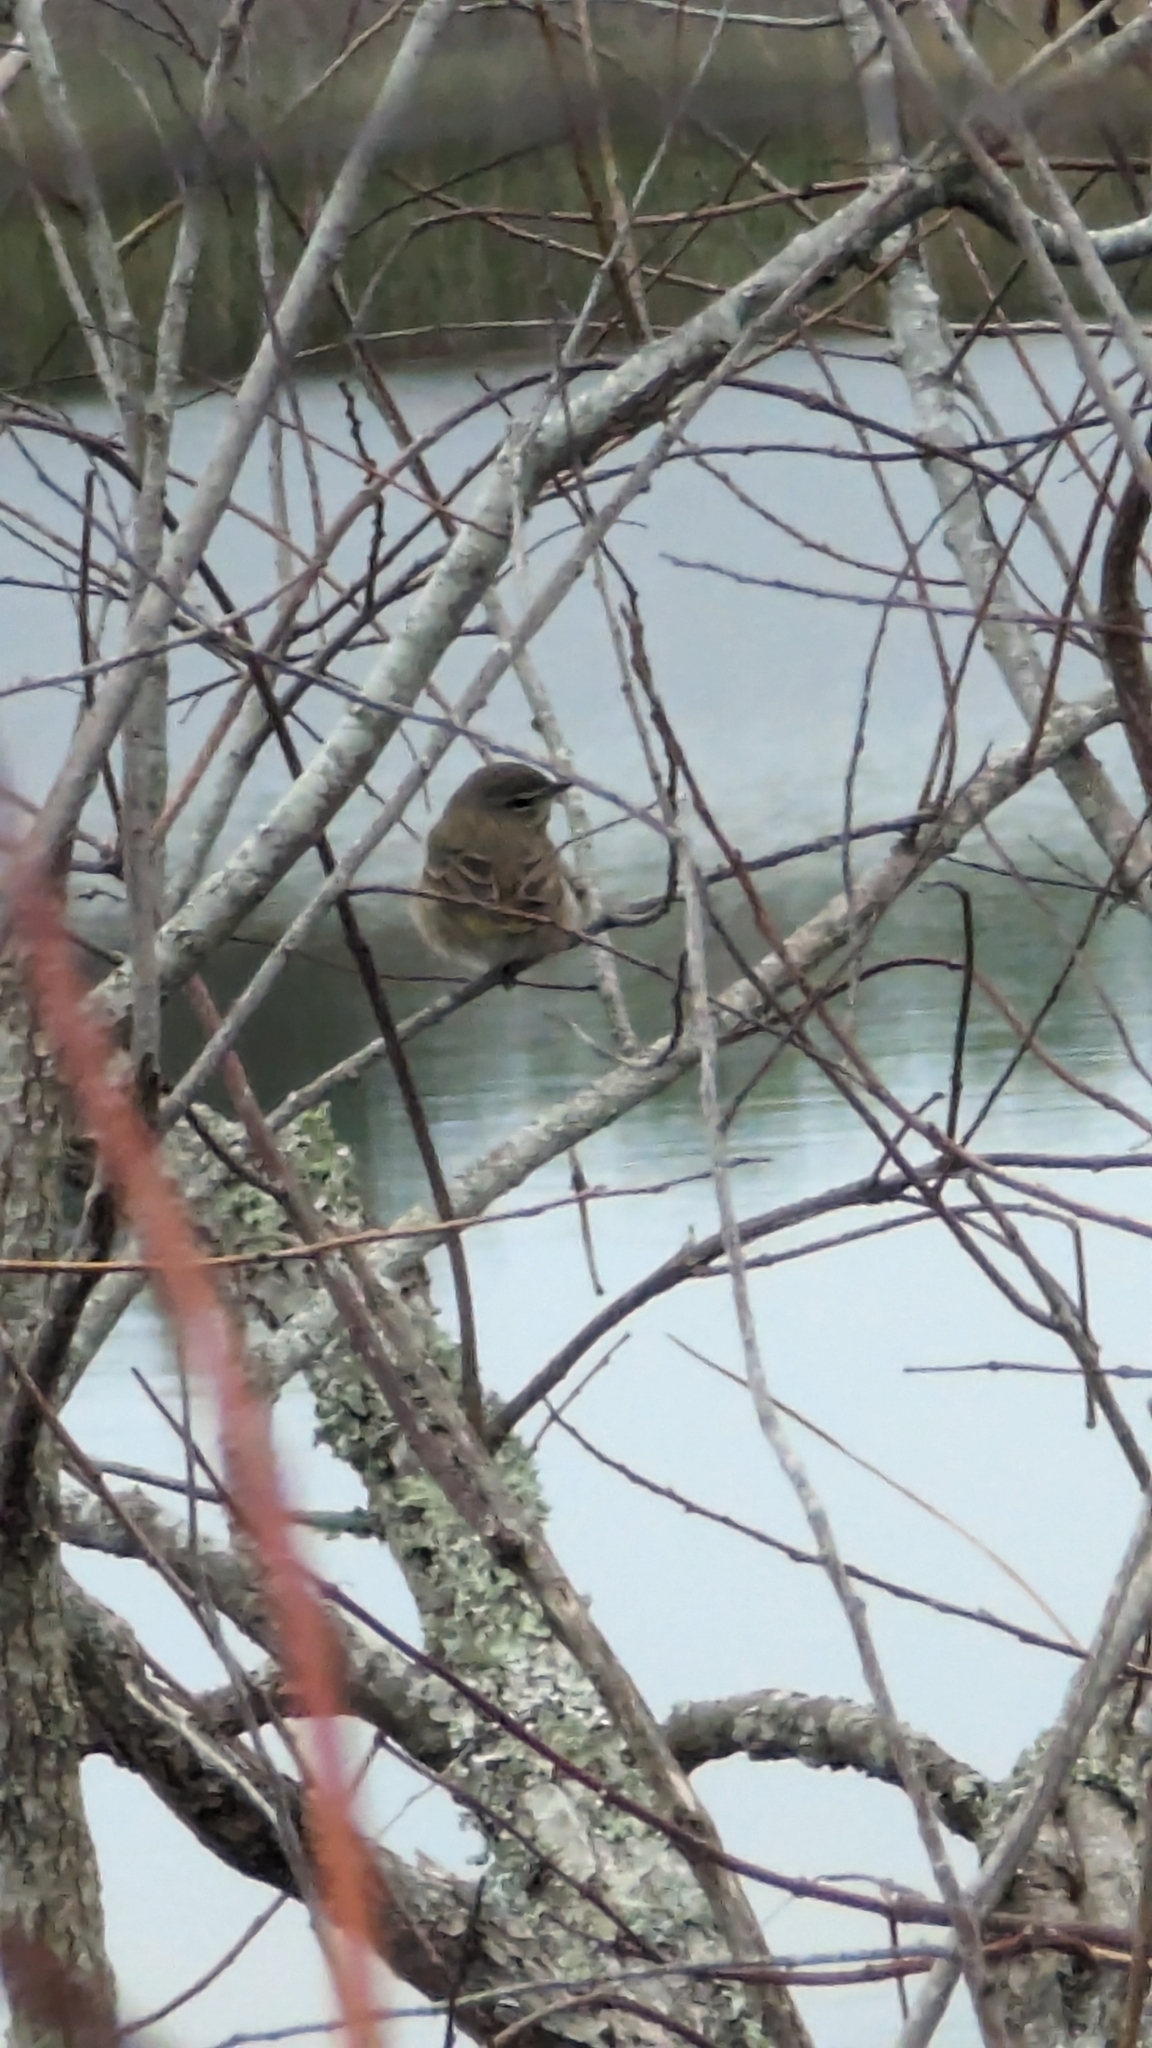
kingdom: Animalia
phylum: Chordata
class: Aves
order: Passeriformes
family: Parulidae
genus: Setophaga
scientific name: Setophaga palmarum
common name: Palm warbler
